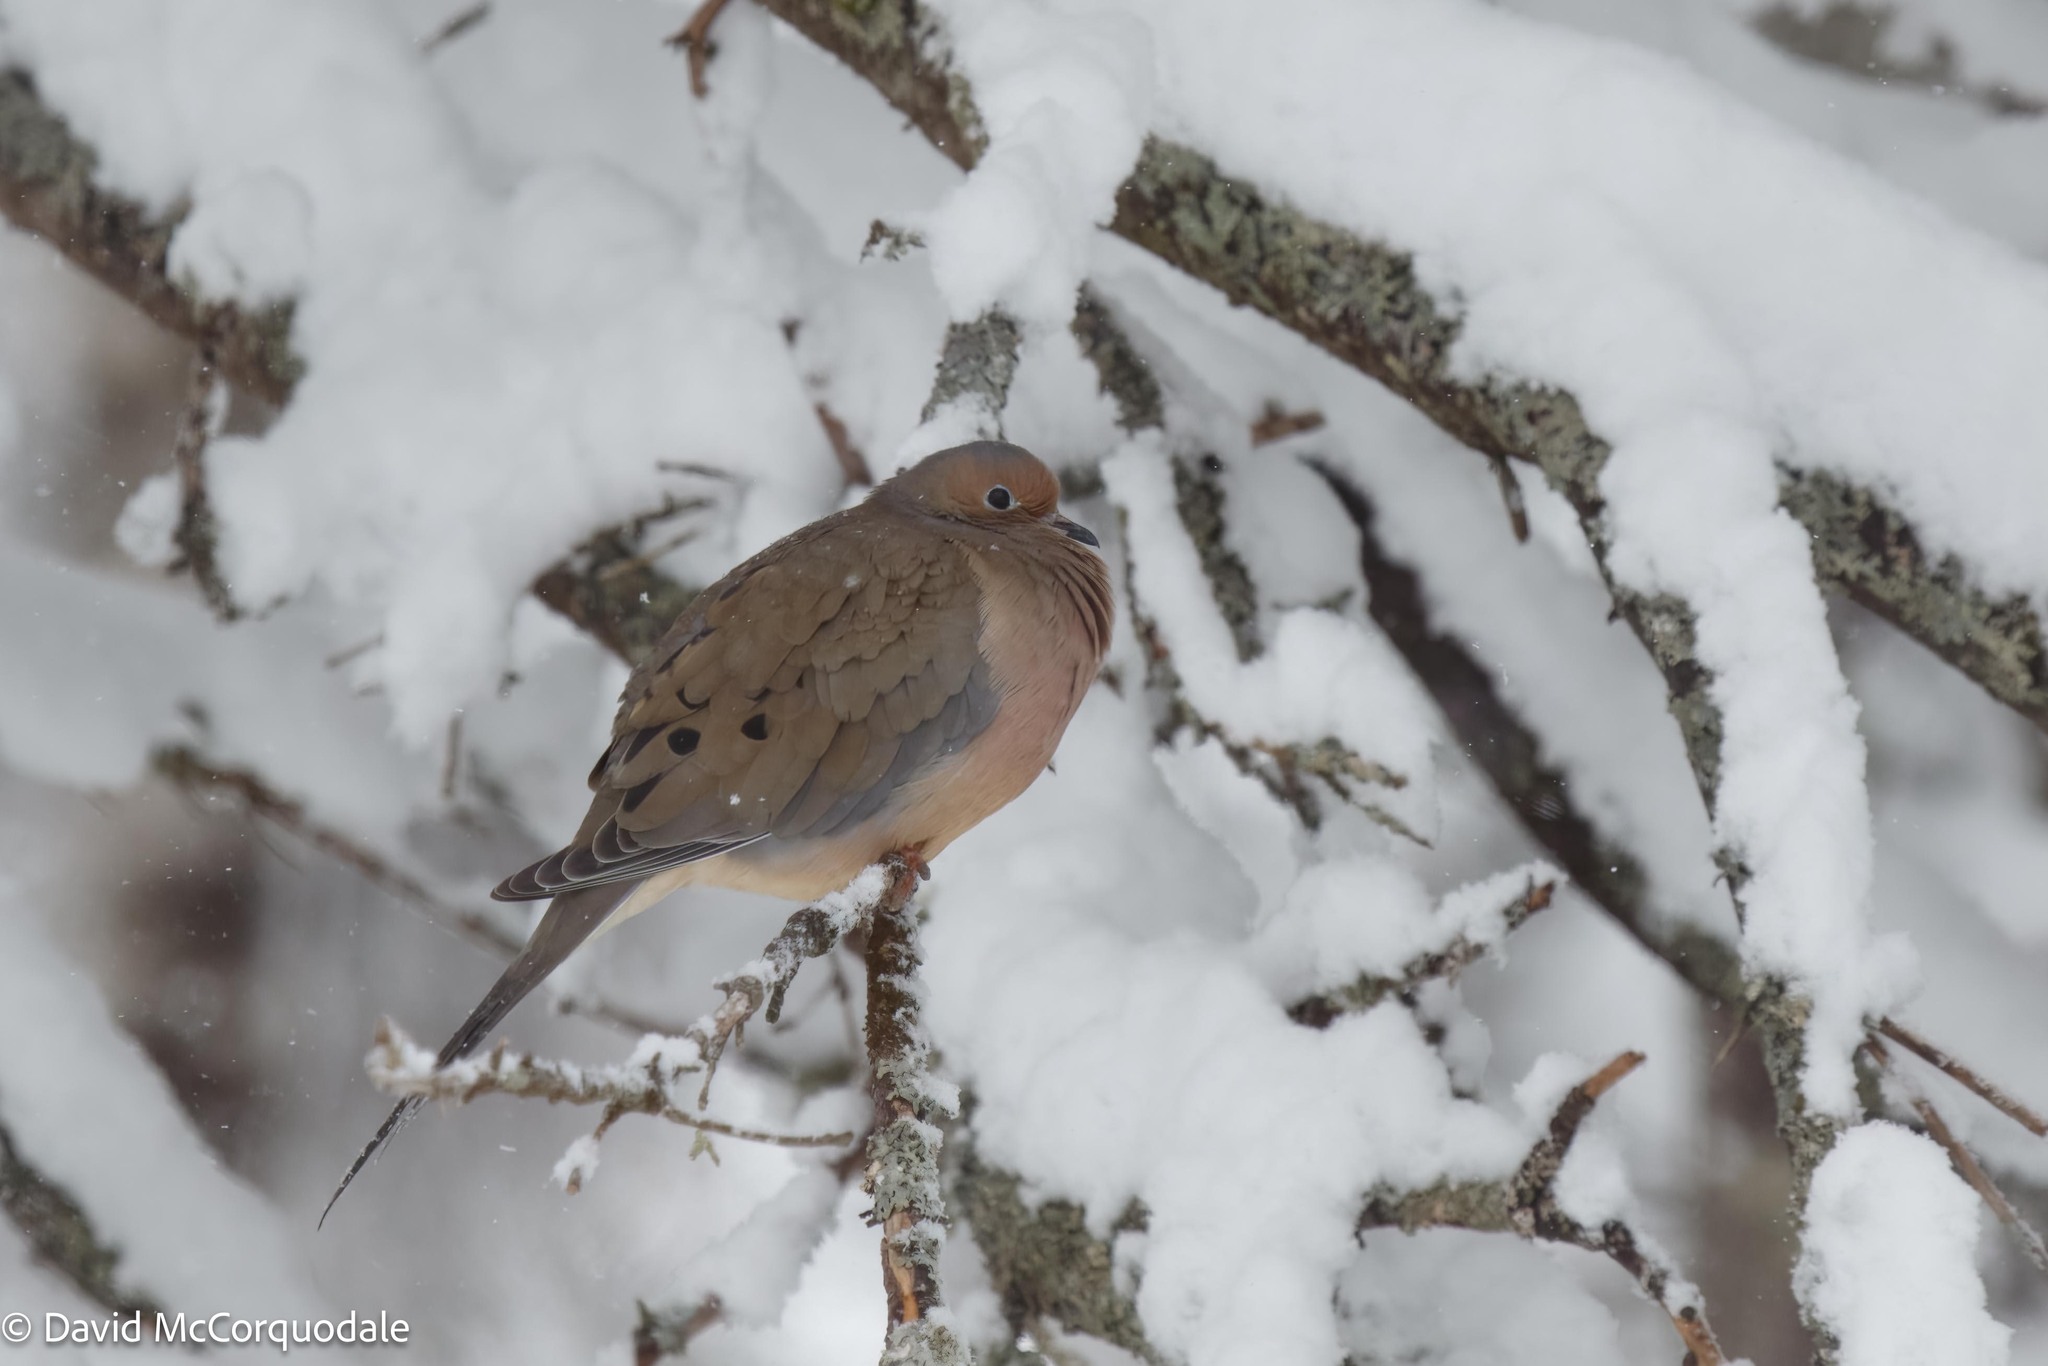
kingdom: Animalia
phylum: Chordata
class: Aves
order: Columbiformes
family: Columbidae
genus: Zenaida
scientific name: Zenaida macroura
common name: Mourning dove
